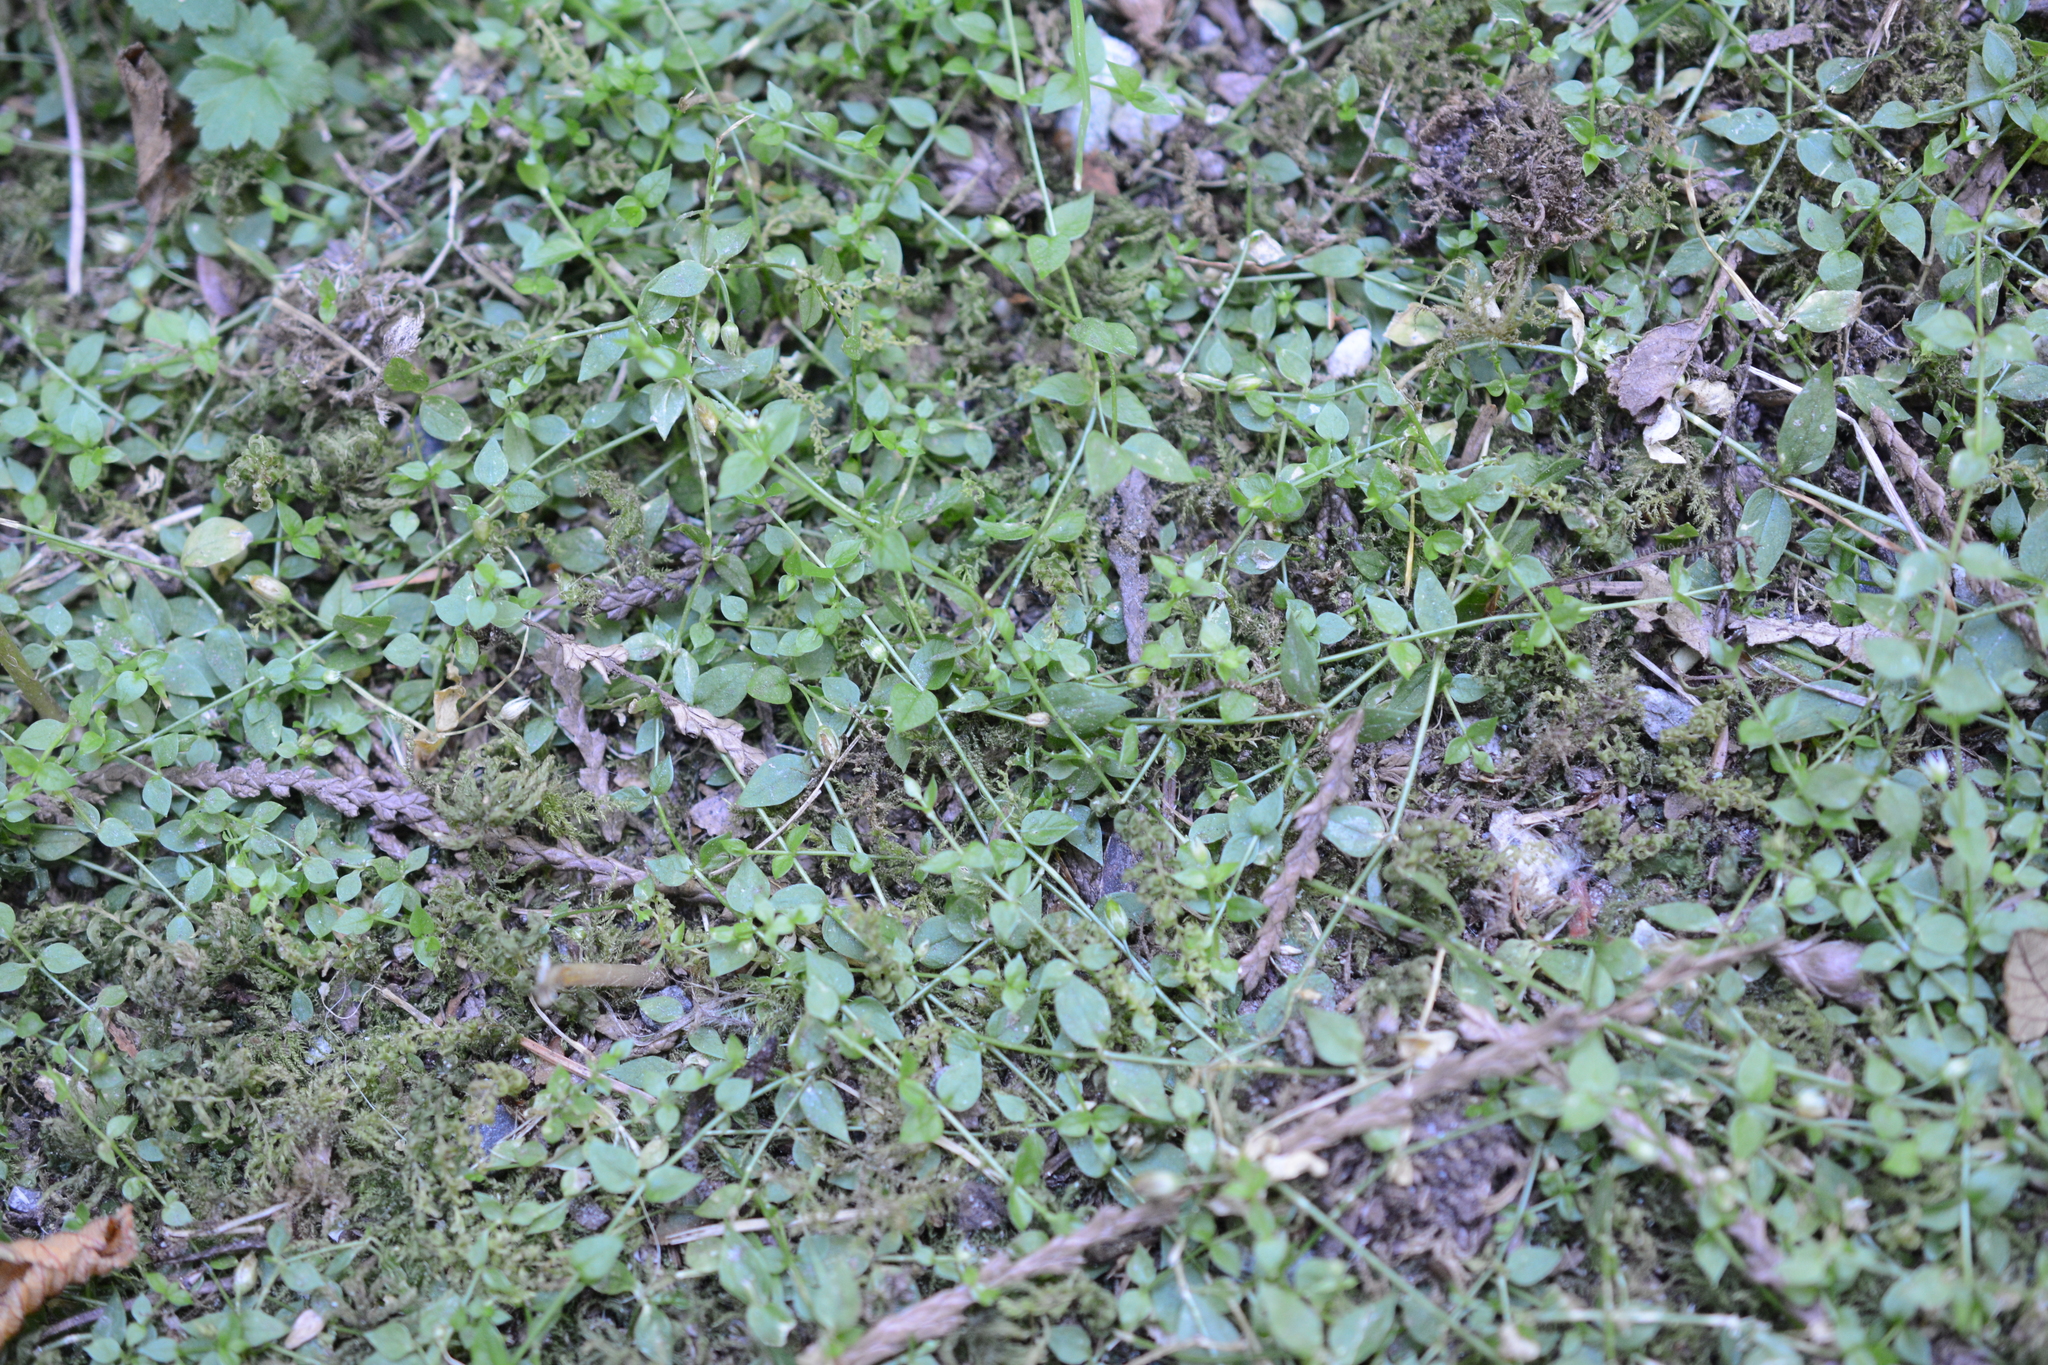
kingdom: Plantae
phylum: Tracheophyta
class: Magnoliopsida
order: Caryophyllales
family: Caryophyllaceae
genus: Stellaria
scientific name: Stellaria crispa
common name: Crimped stitchwort
